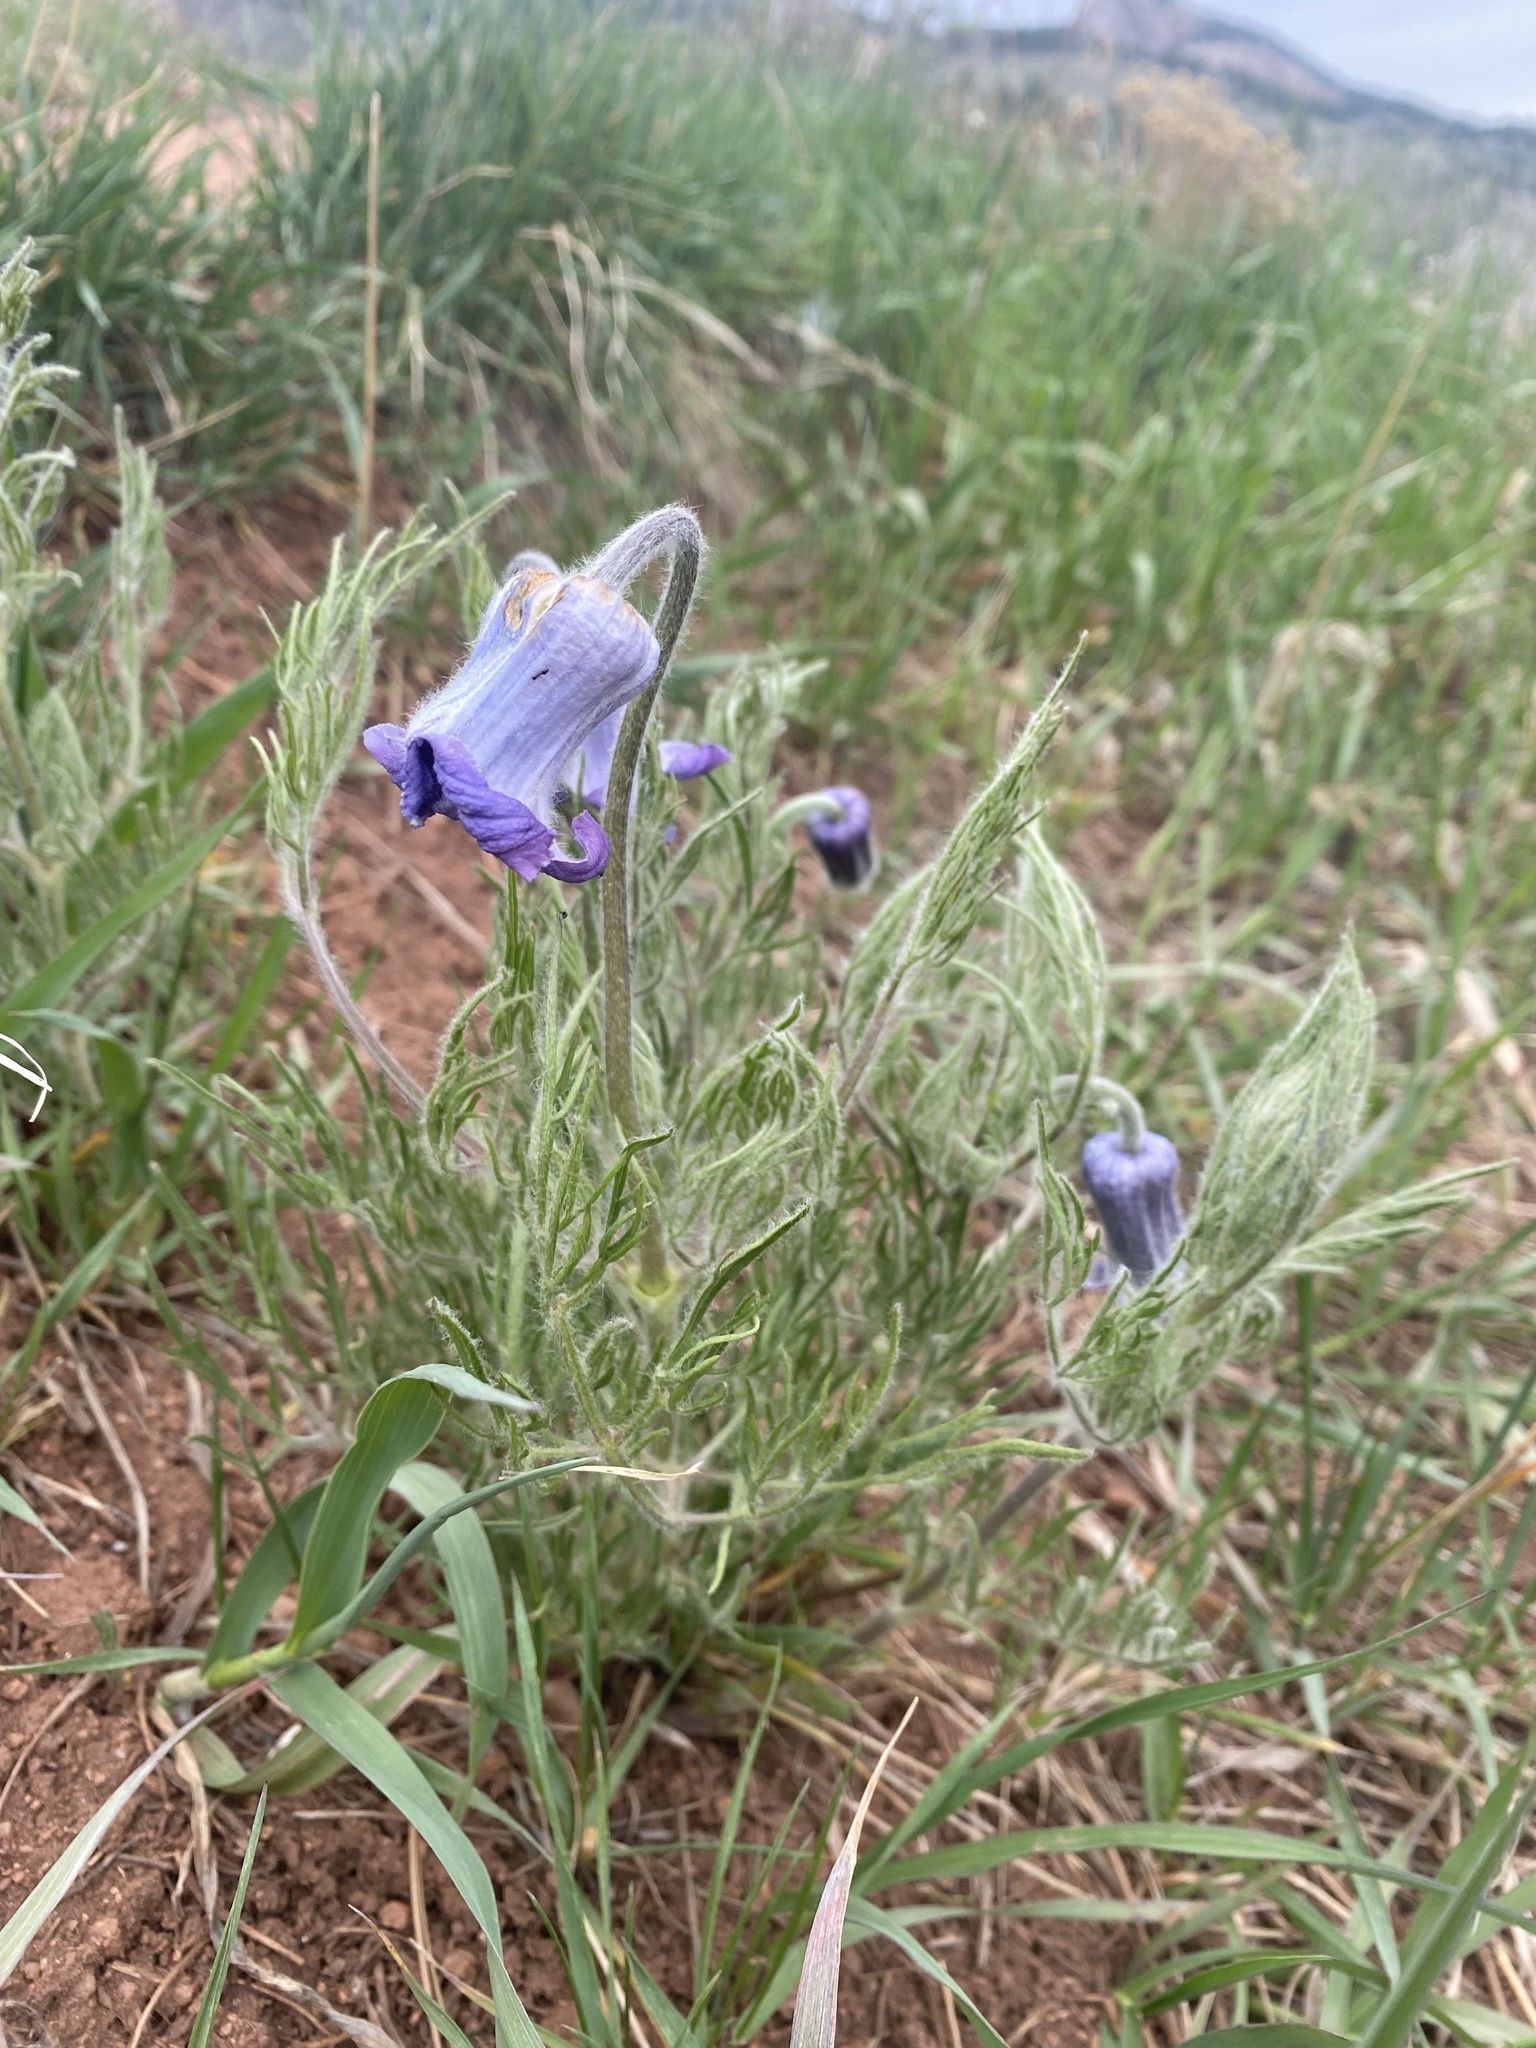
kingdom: Plantae
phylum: Tracheophyta
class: Magnoliopsida
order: Ranunculales
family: Ranunculaceae
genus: Clematis
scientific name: Clematis hirsutissima
